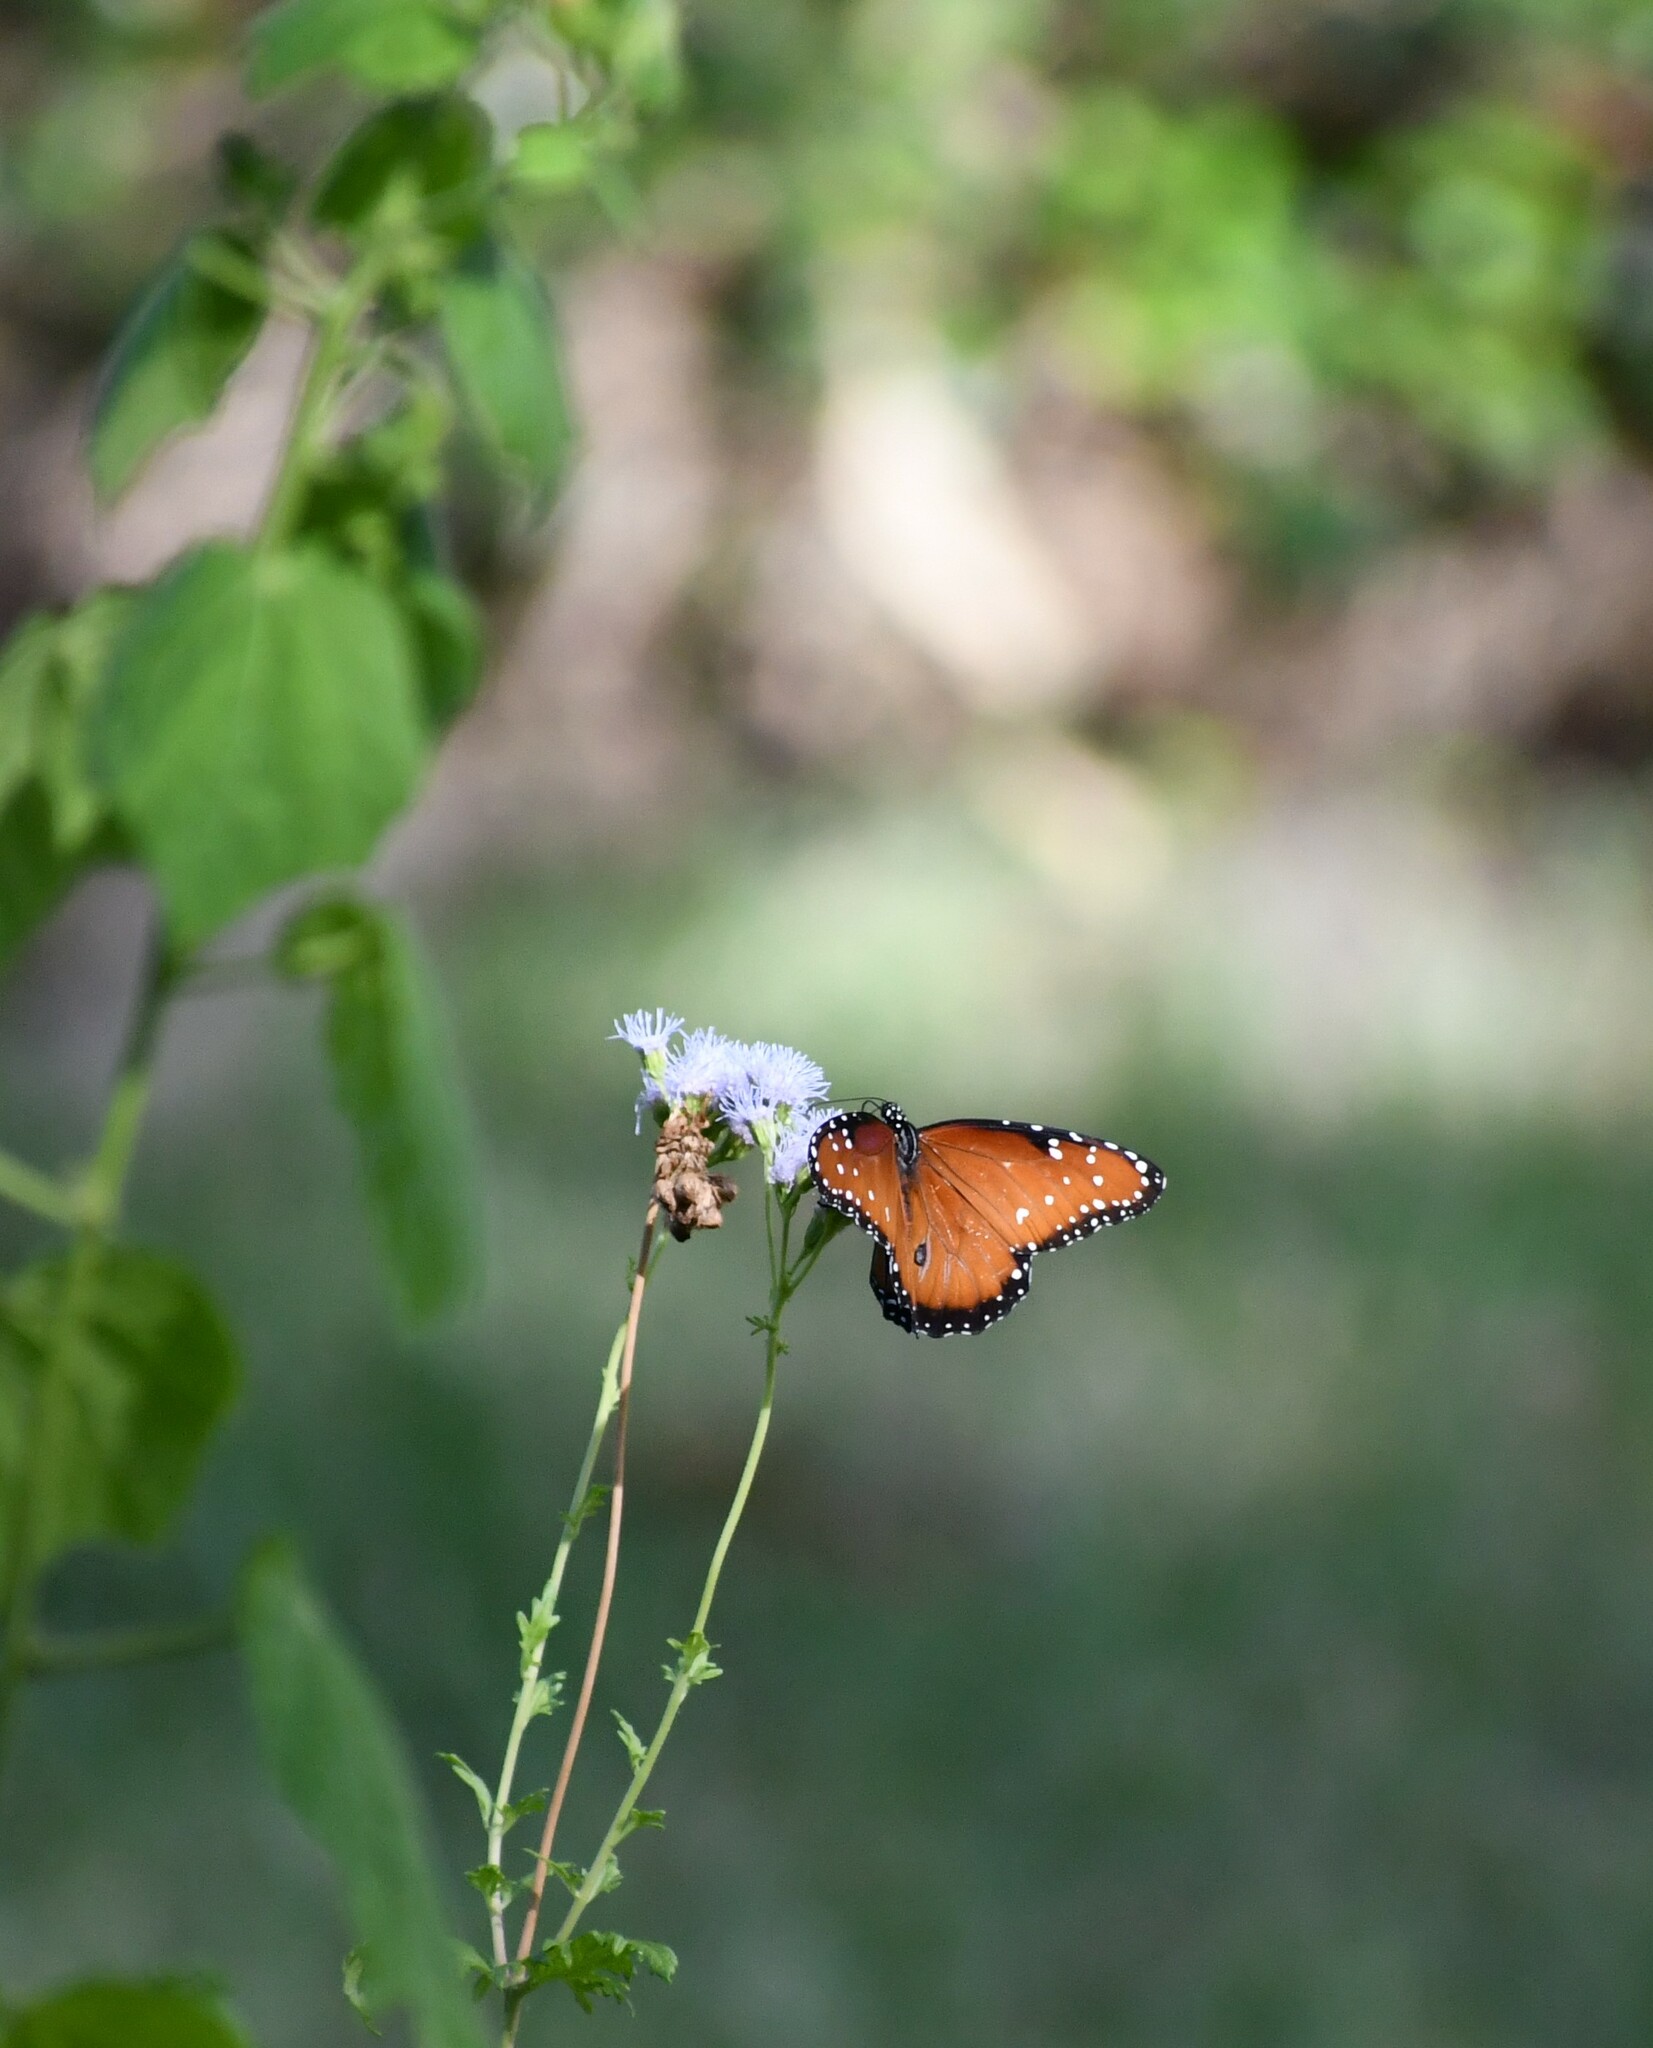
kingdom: Animalia
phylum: Arthropoda
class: Insecta
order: Lepidoptera
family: Nymphalidae
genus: Danaus
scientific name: Danaus gilippus
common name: Queen
